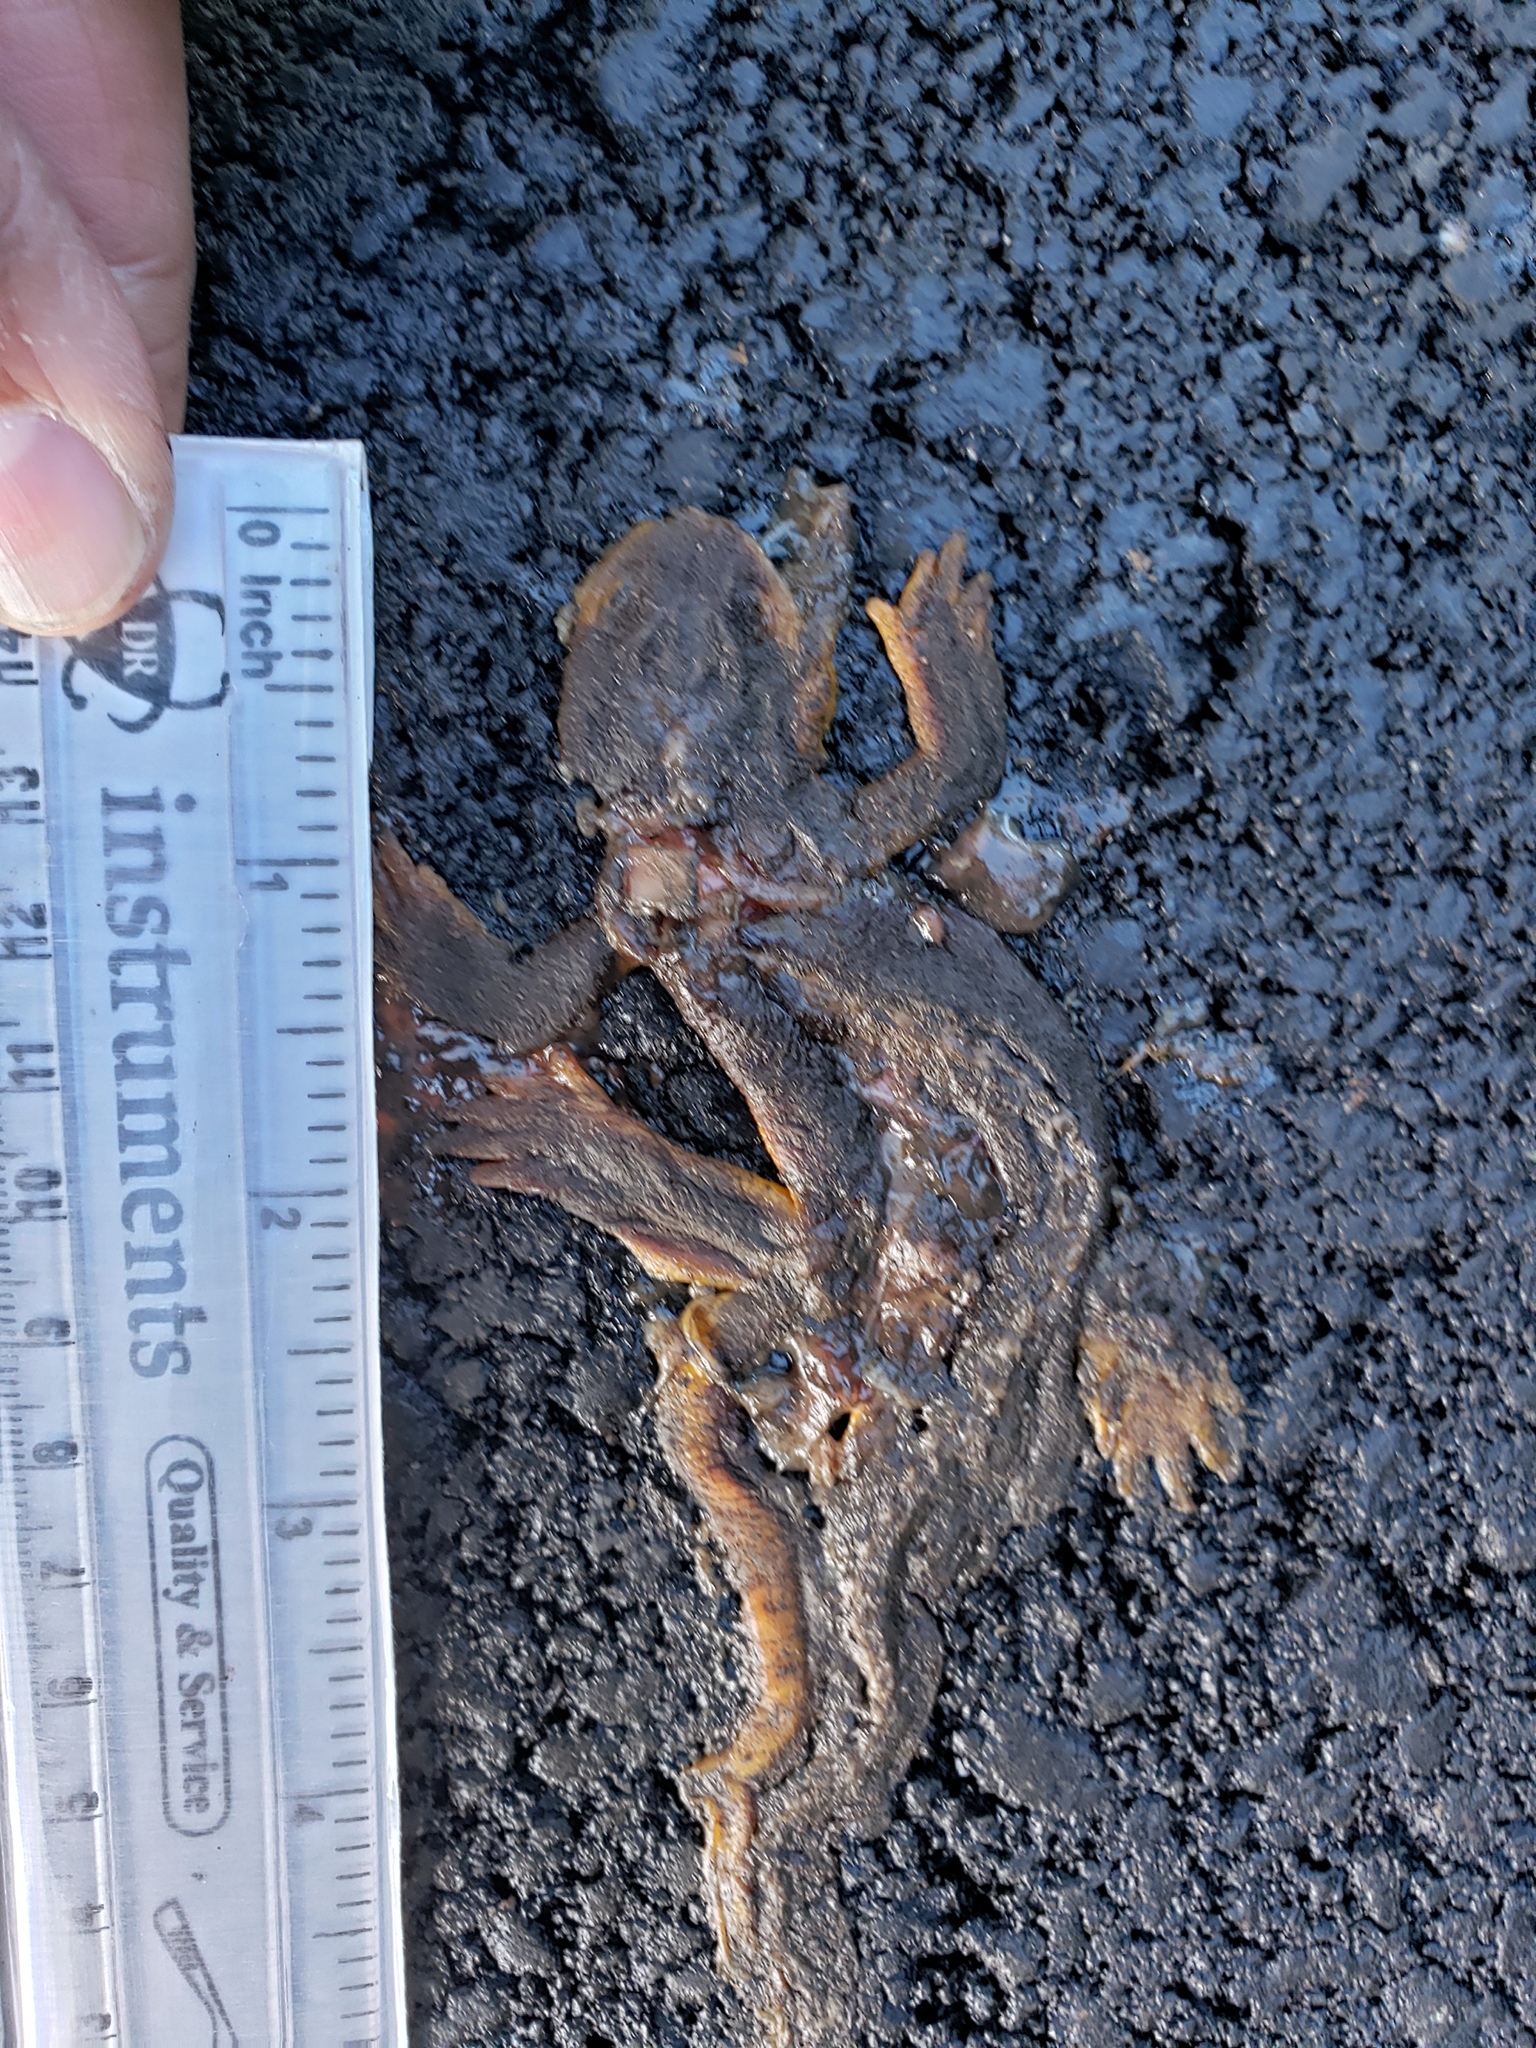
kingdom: Animalia
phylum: Chordata
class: Amphibia
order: Caudata
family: Salamandridae
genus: Taricha
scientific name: Taricha
